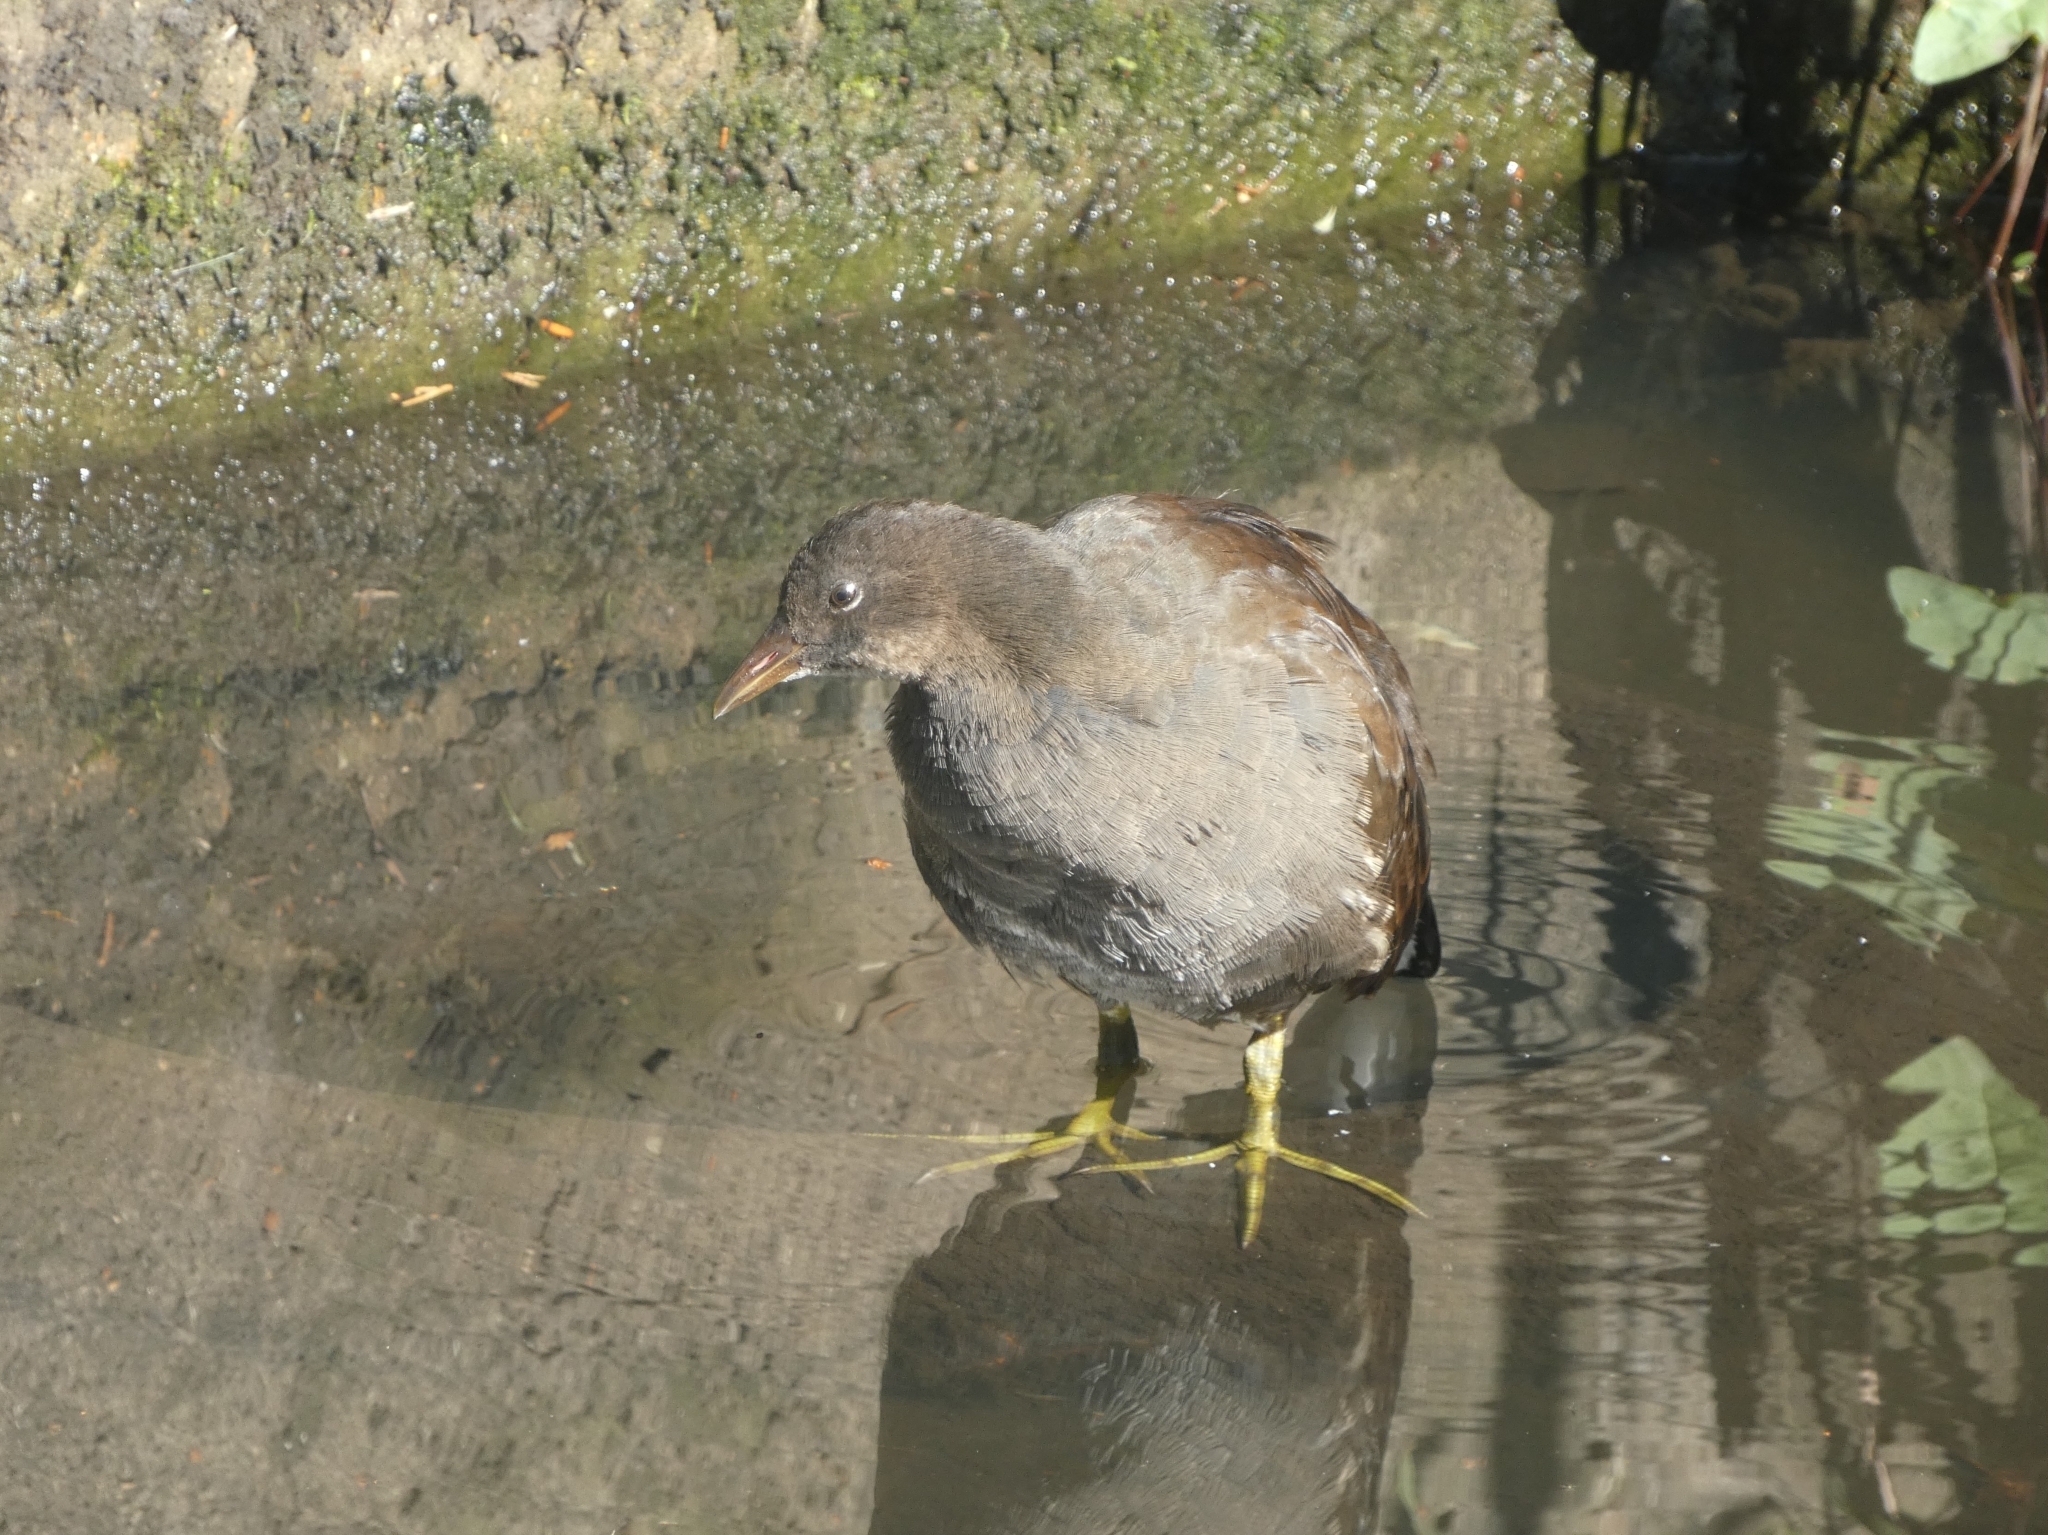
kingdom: Animalia
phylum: Chordata
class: Aves
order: Gruiformes
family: Rallidae
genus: Gallinula
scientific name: Gallinula chloropus
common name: Common moorhen
